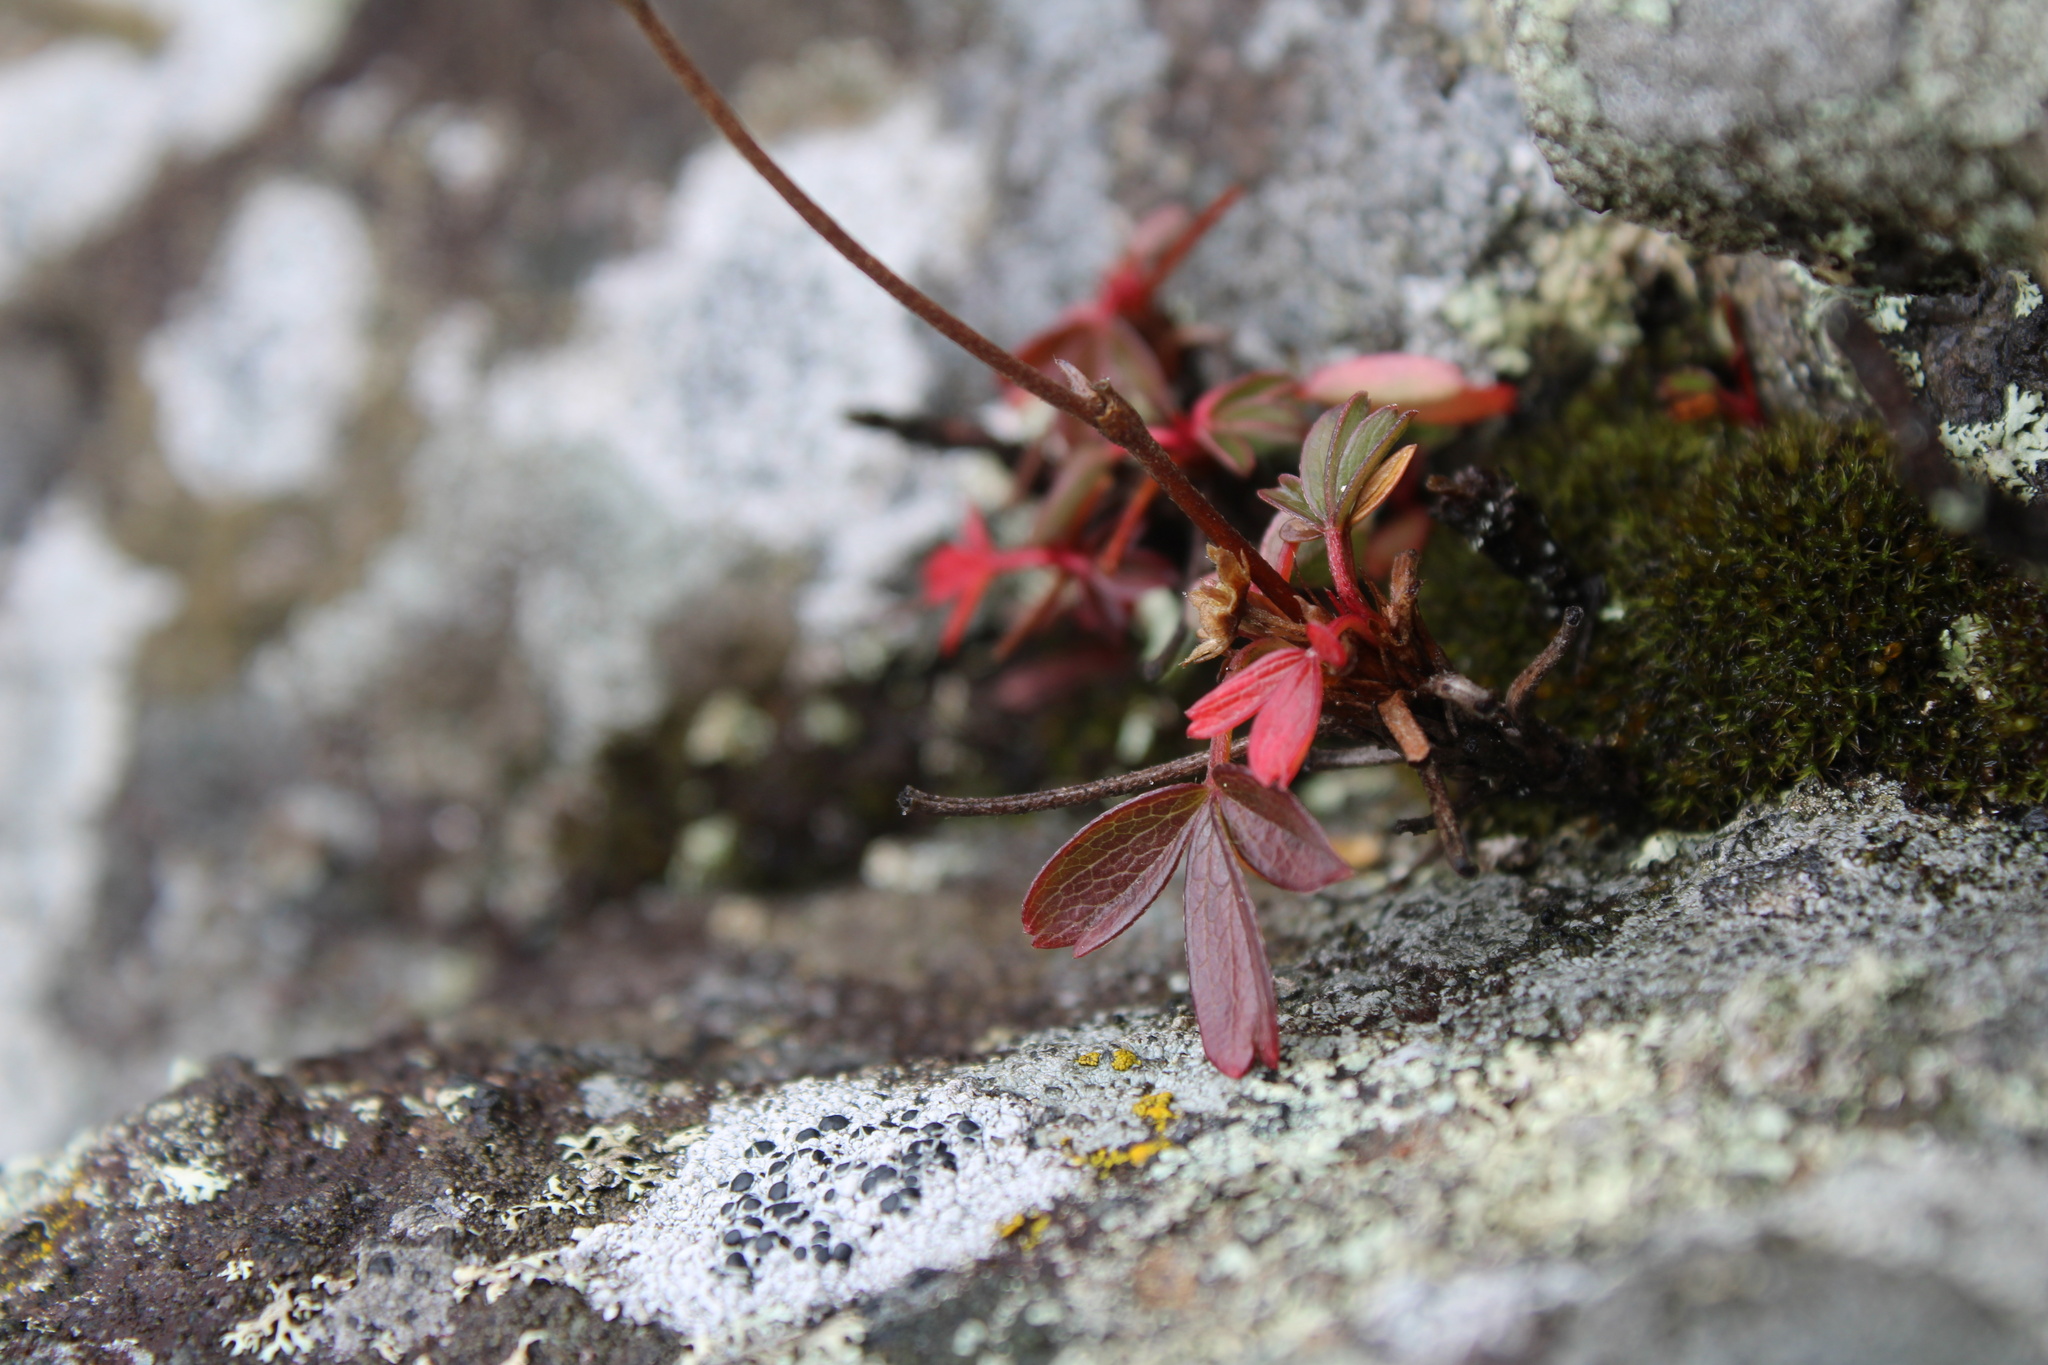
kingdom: Plantae
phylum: Tracheophyta
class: Magnoliopsida
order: Rosales
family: Rosaceae
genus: Sibbaldia
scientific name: Sibbaldia tridentata
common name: Three-toothed cinquefoil
